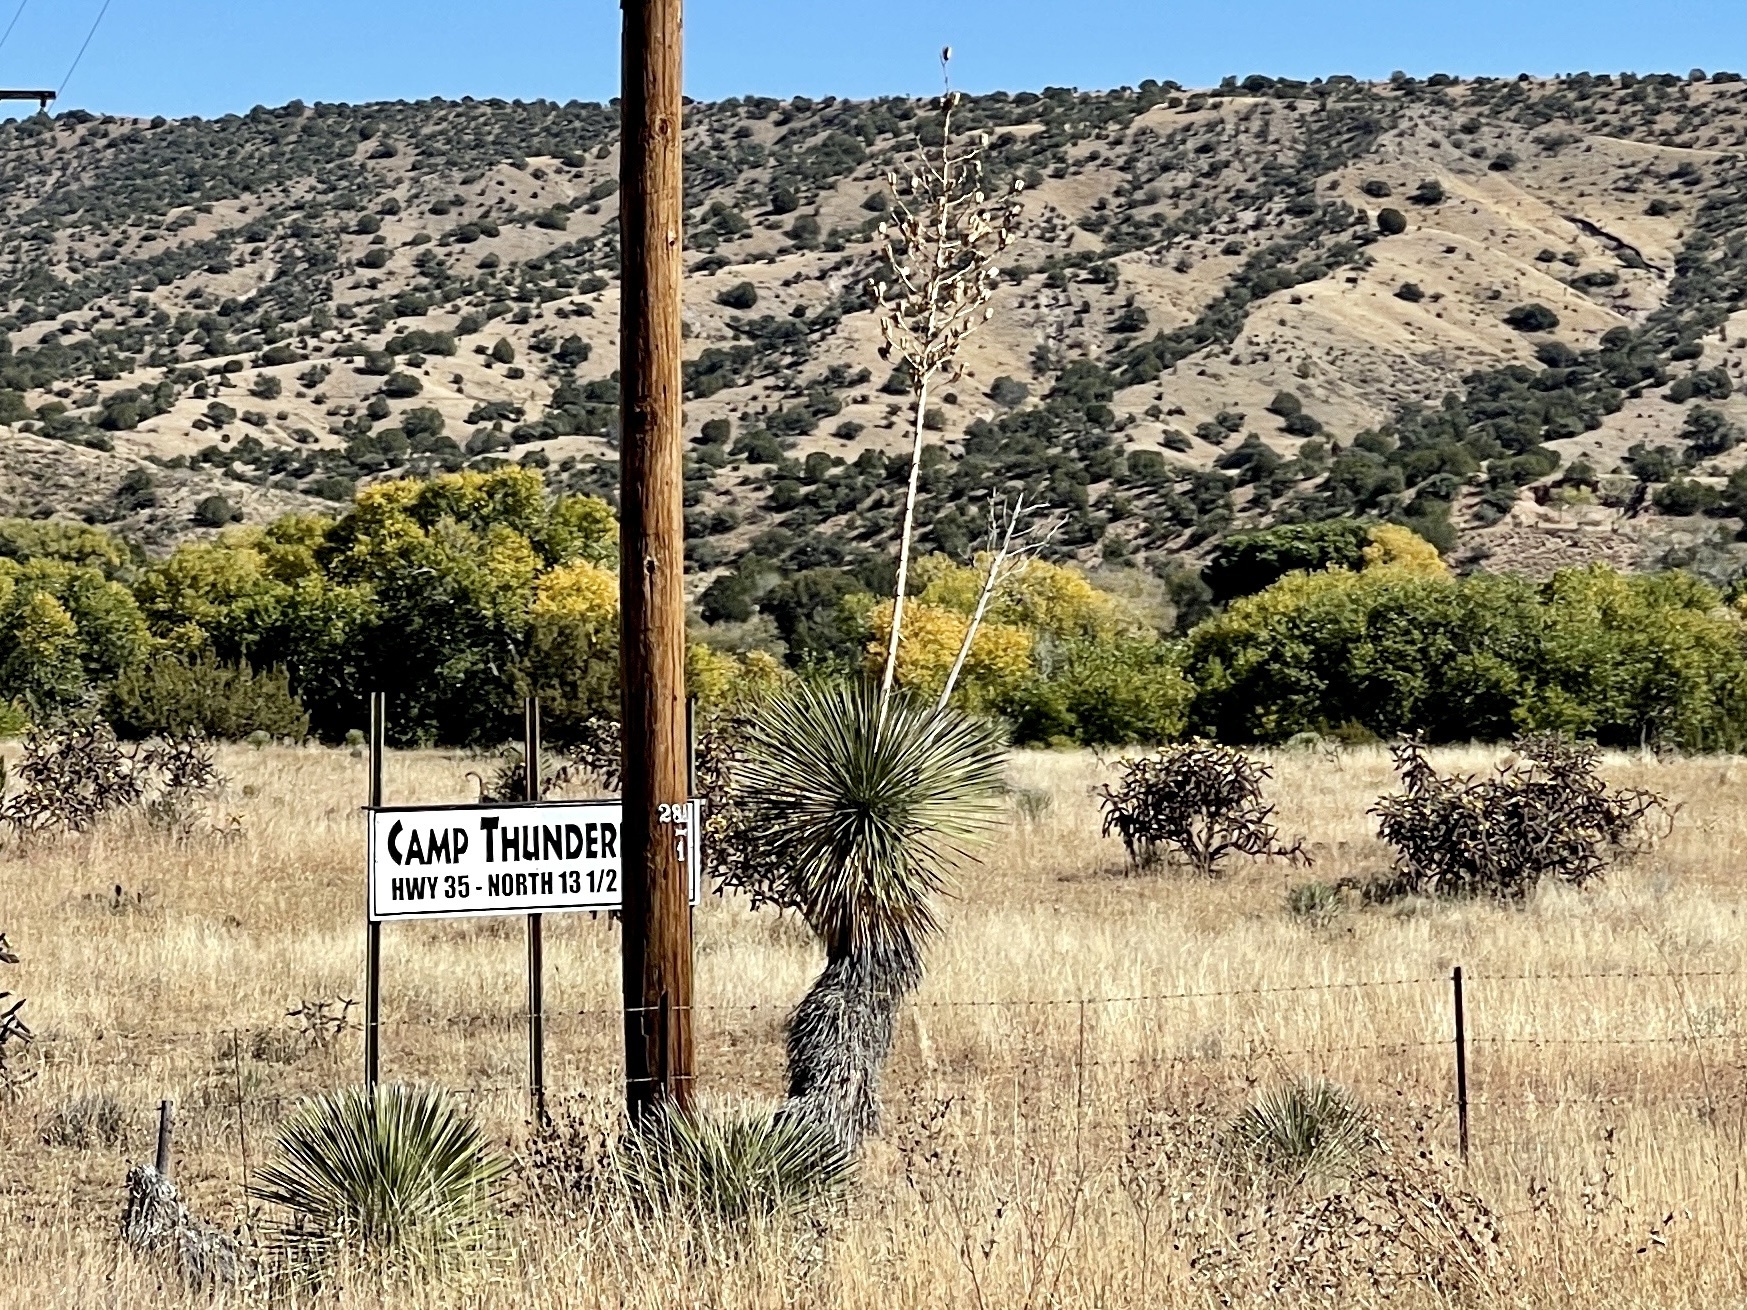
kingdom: Plantae
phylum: Tracheophyta
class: Liliopsida
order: Asparagales
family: Asparagaceae
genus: Yucca
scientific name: Yucca elata
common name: Palmella
